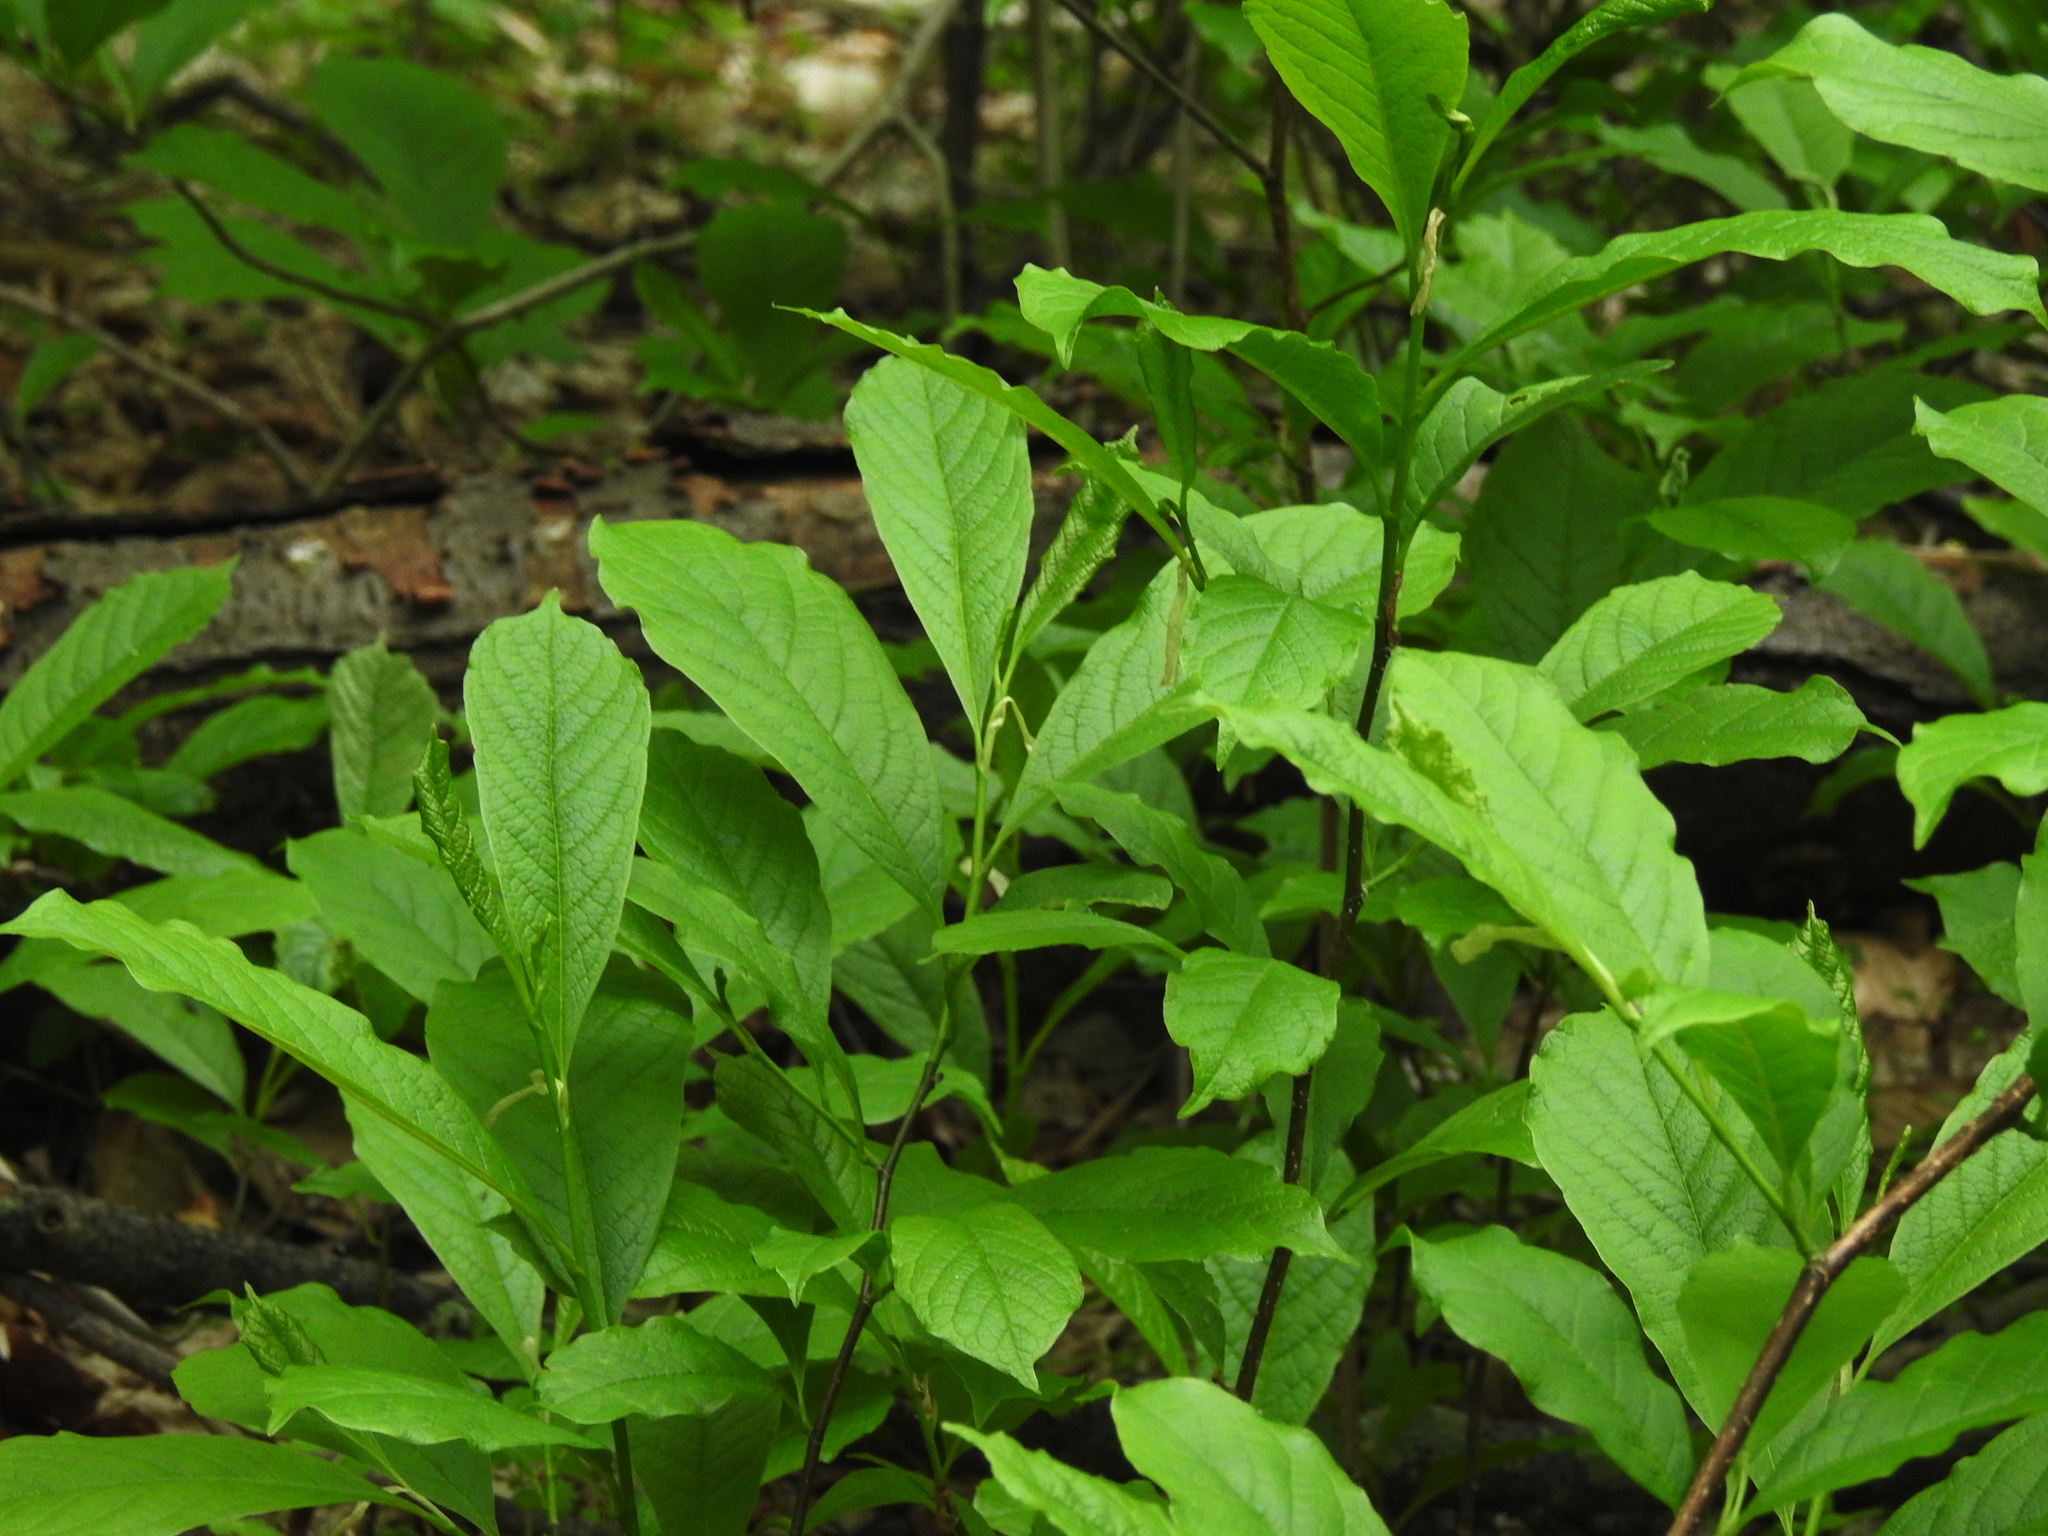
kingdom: Plantae
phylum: Tracheophyta
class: Magnoliopsida
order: Magnoliales
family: Annonaceae
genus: Asimina
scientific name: Asimina triloba
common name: Dog-banana
